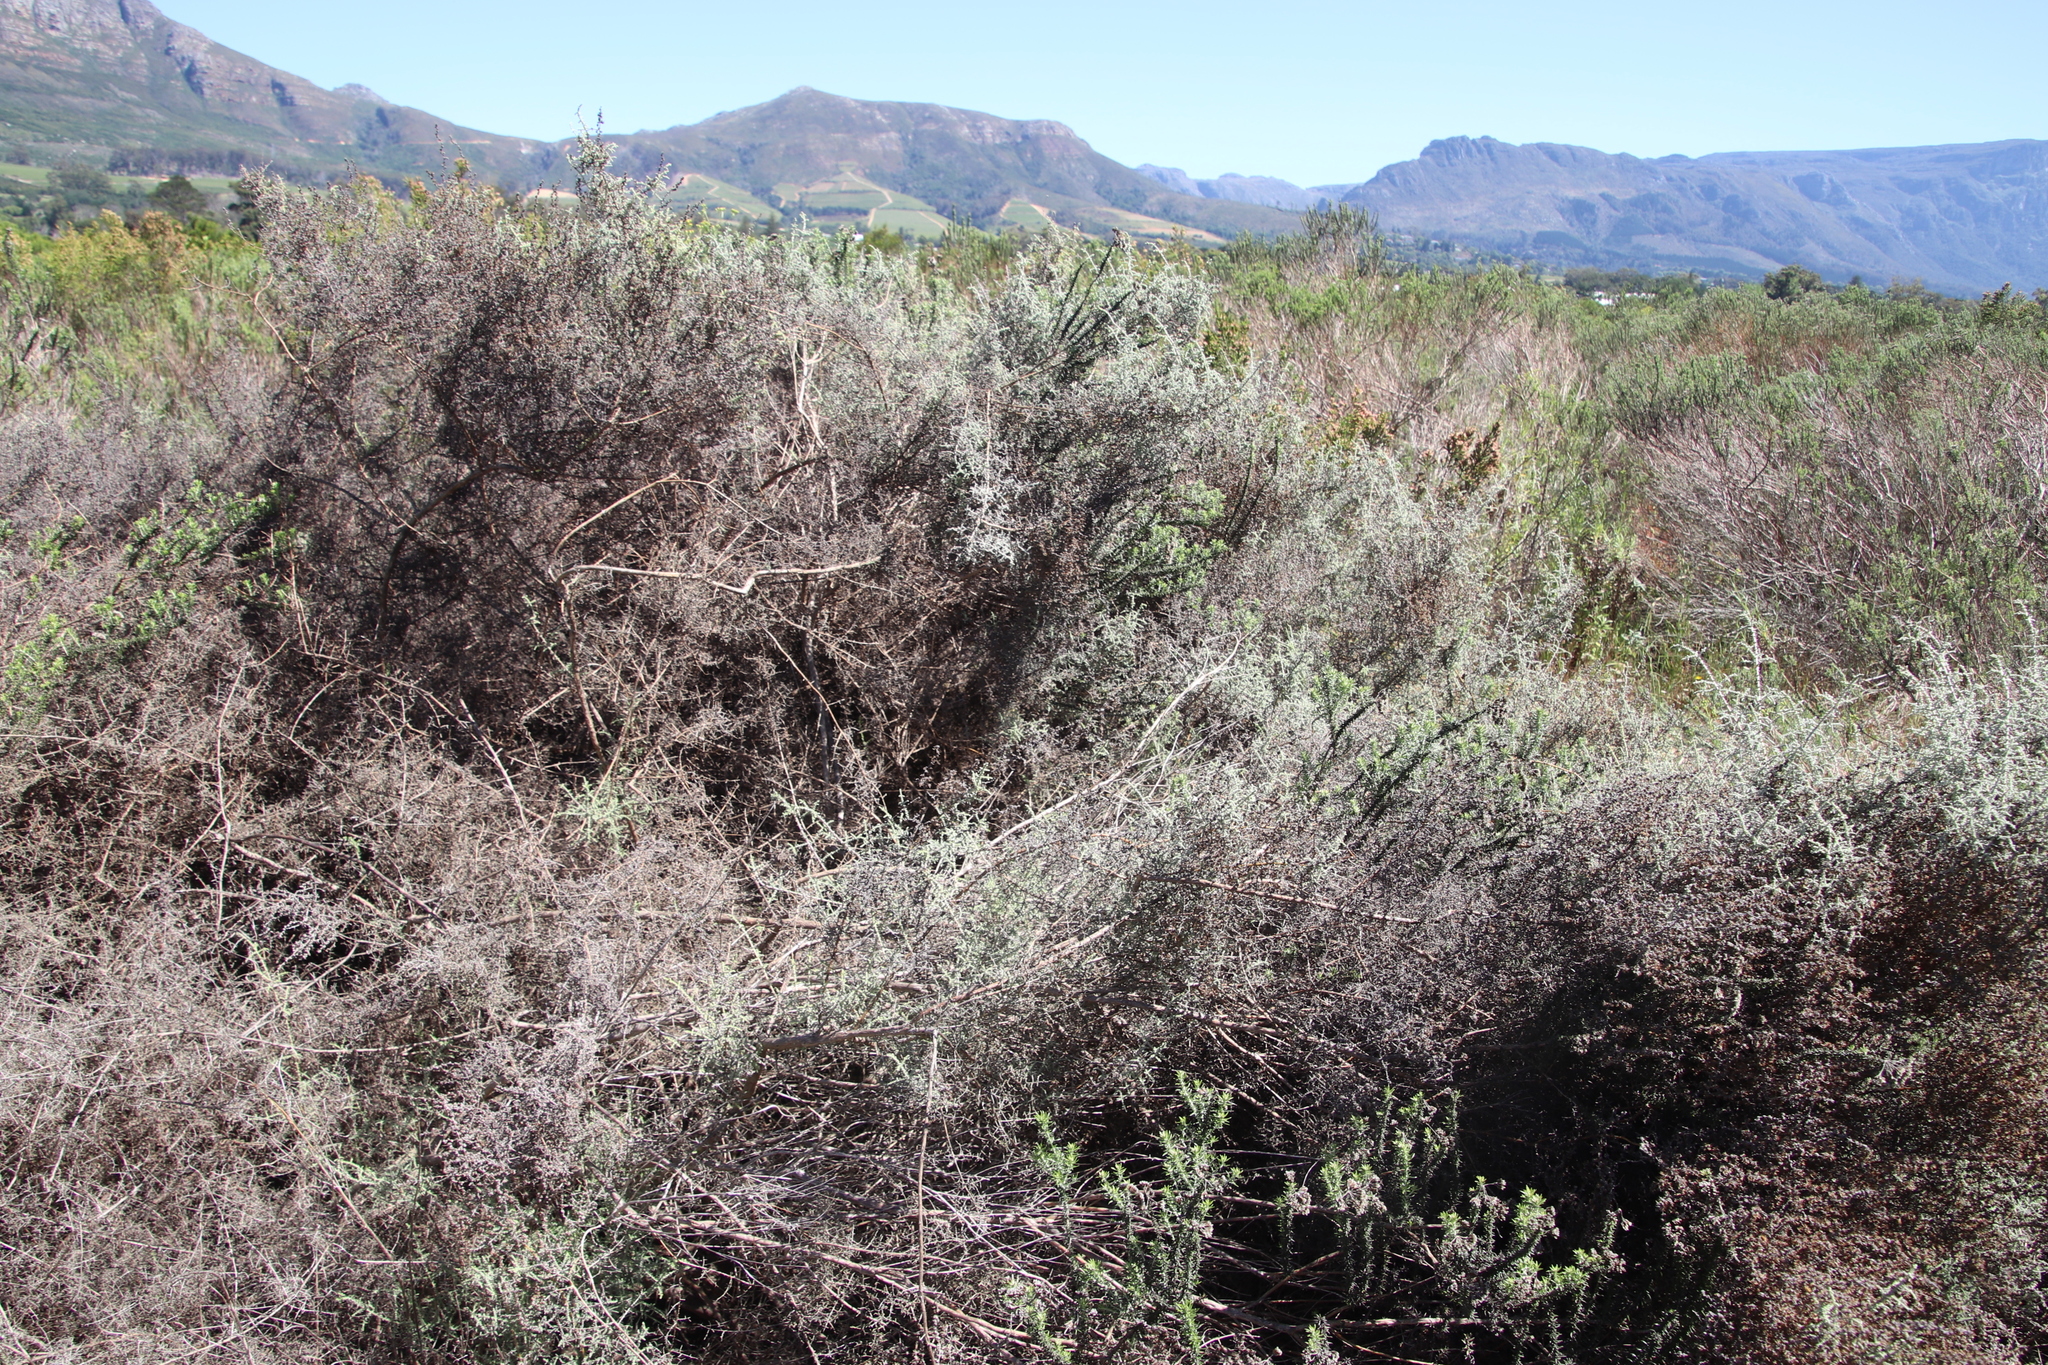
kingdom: Plantae
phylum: Tracheophyta
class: Magnoliopsida
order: Asterales
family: Asteraceae
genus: Seriphium
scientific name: Seriphium plumosum
